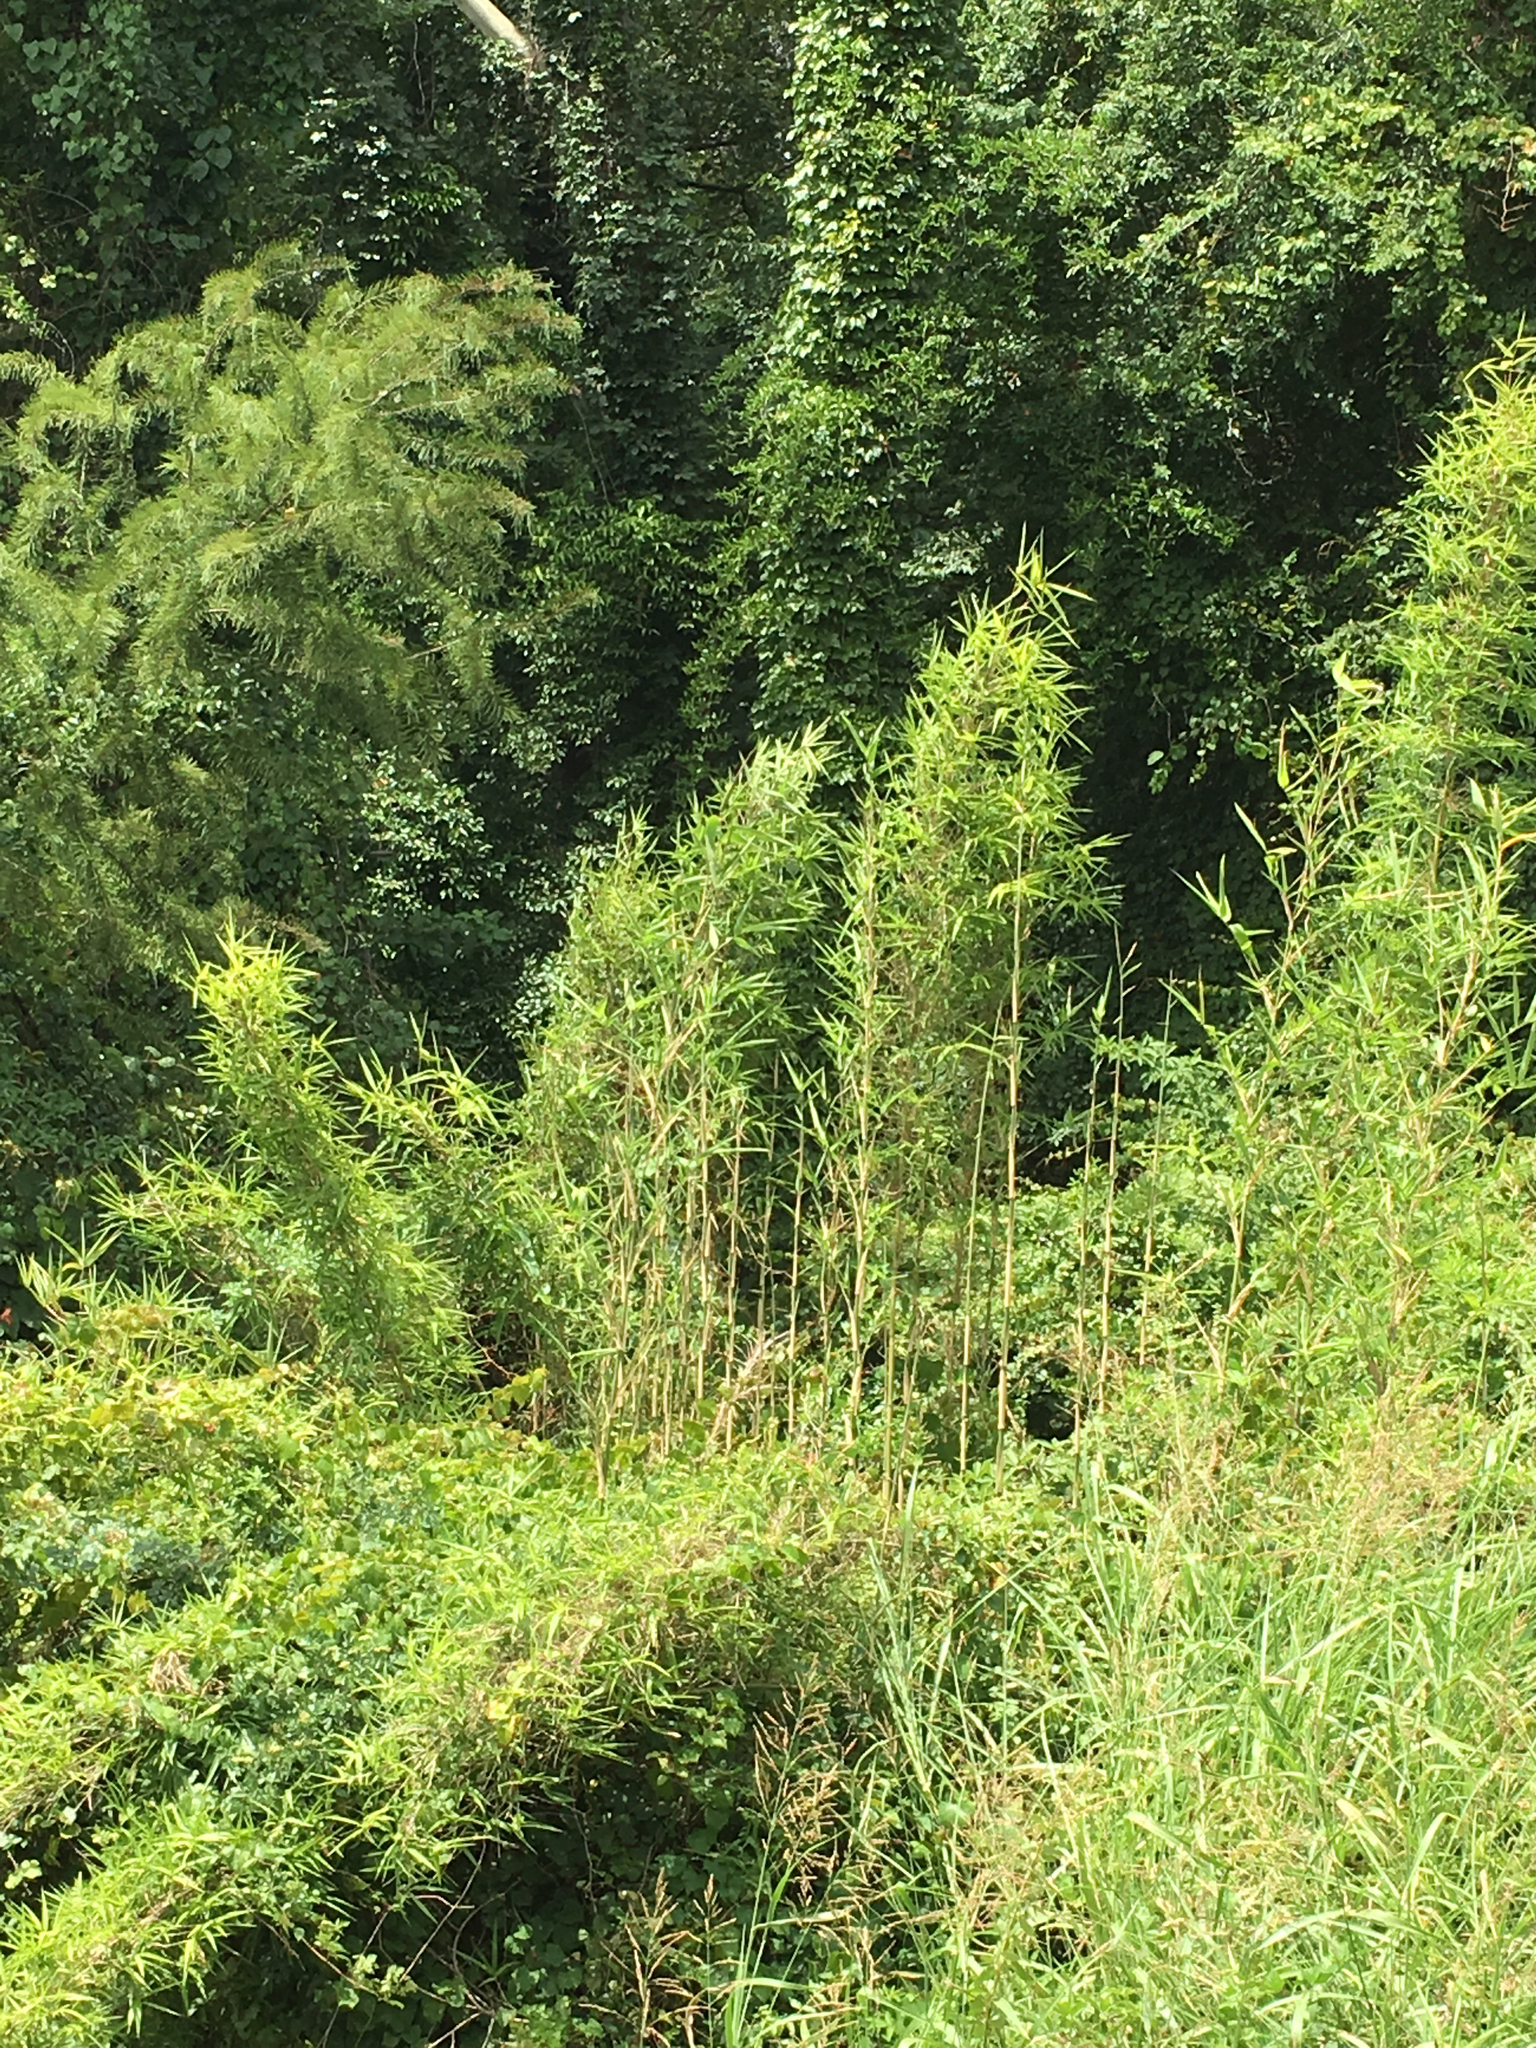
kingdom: Plantae
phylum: Tracheophyta
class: Liliopsida
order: Poales
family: Poaceae
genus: Arundinaria
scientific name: Arundinaria gigantea
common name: Giant cane
